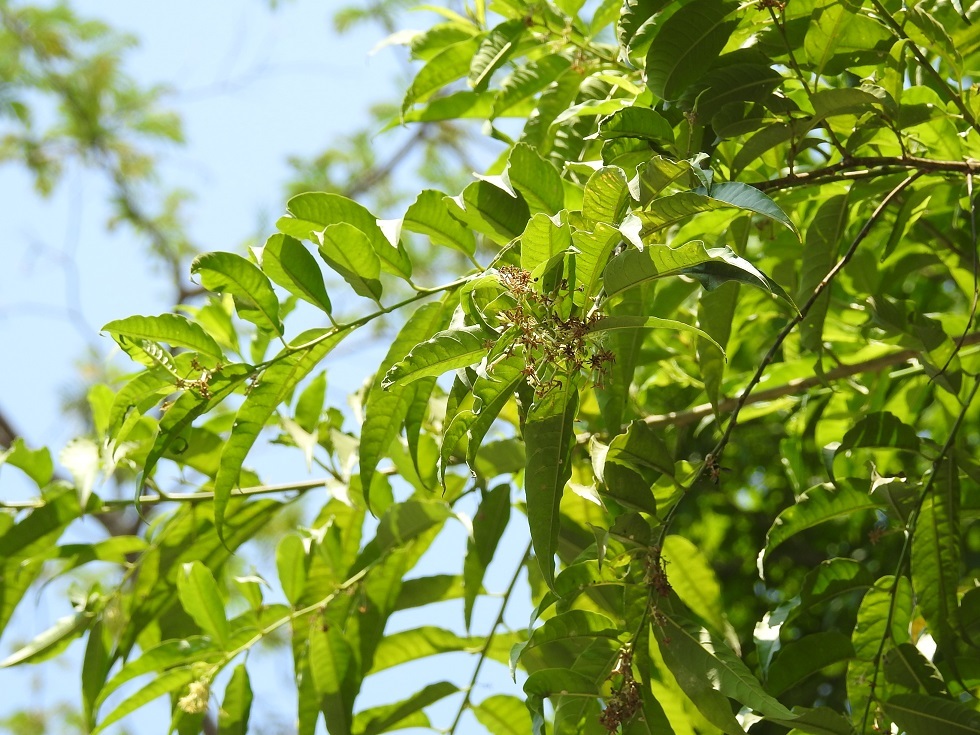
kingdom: Plantae
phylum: Tracheophyta
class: Magnoliopsida
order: Solanales
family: Solanaceae
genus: Cestrum
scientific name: Cestrum racemosum
